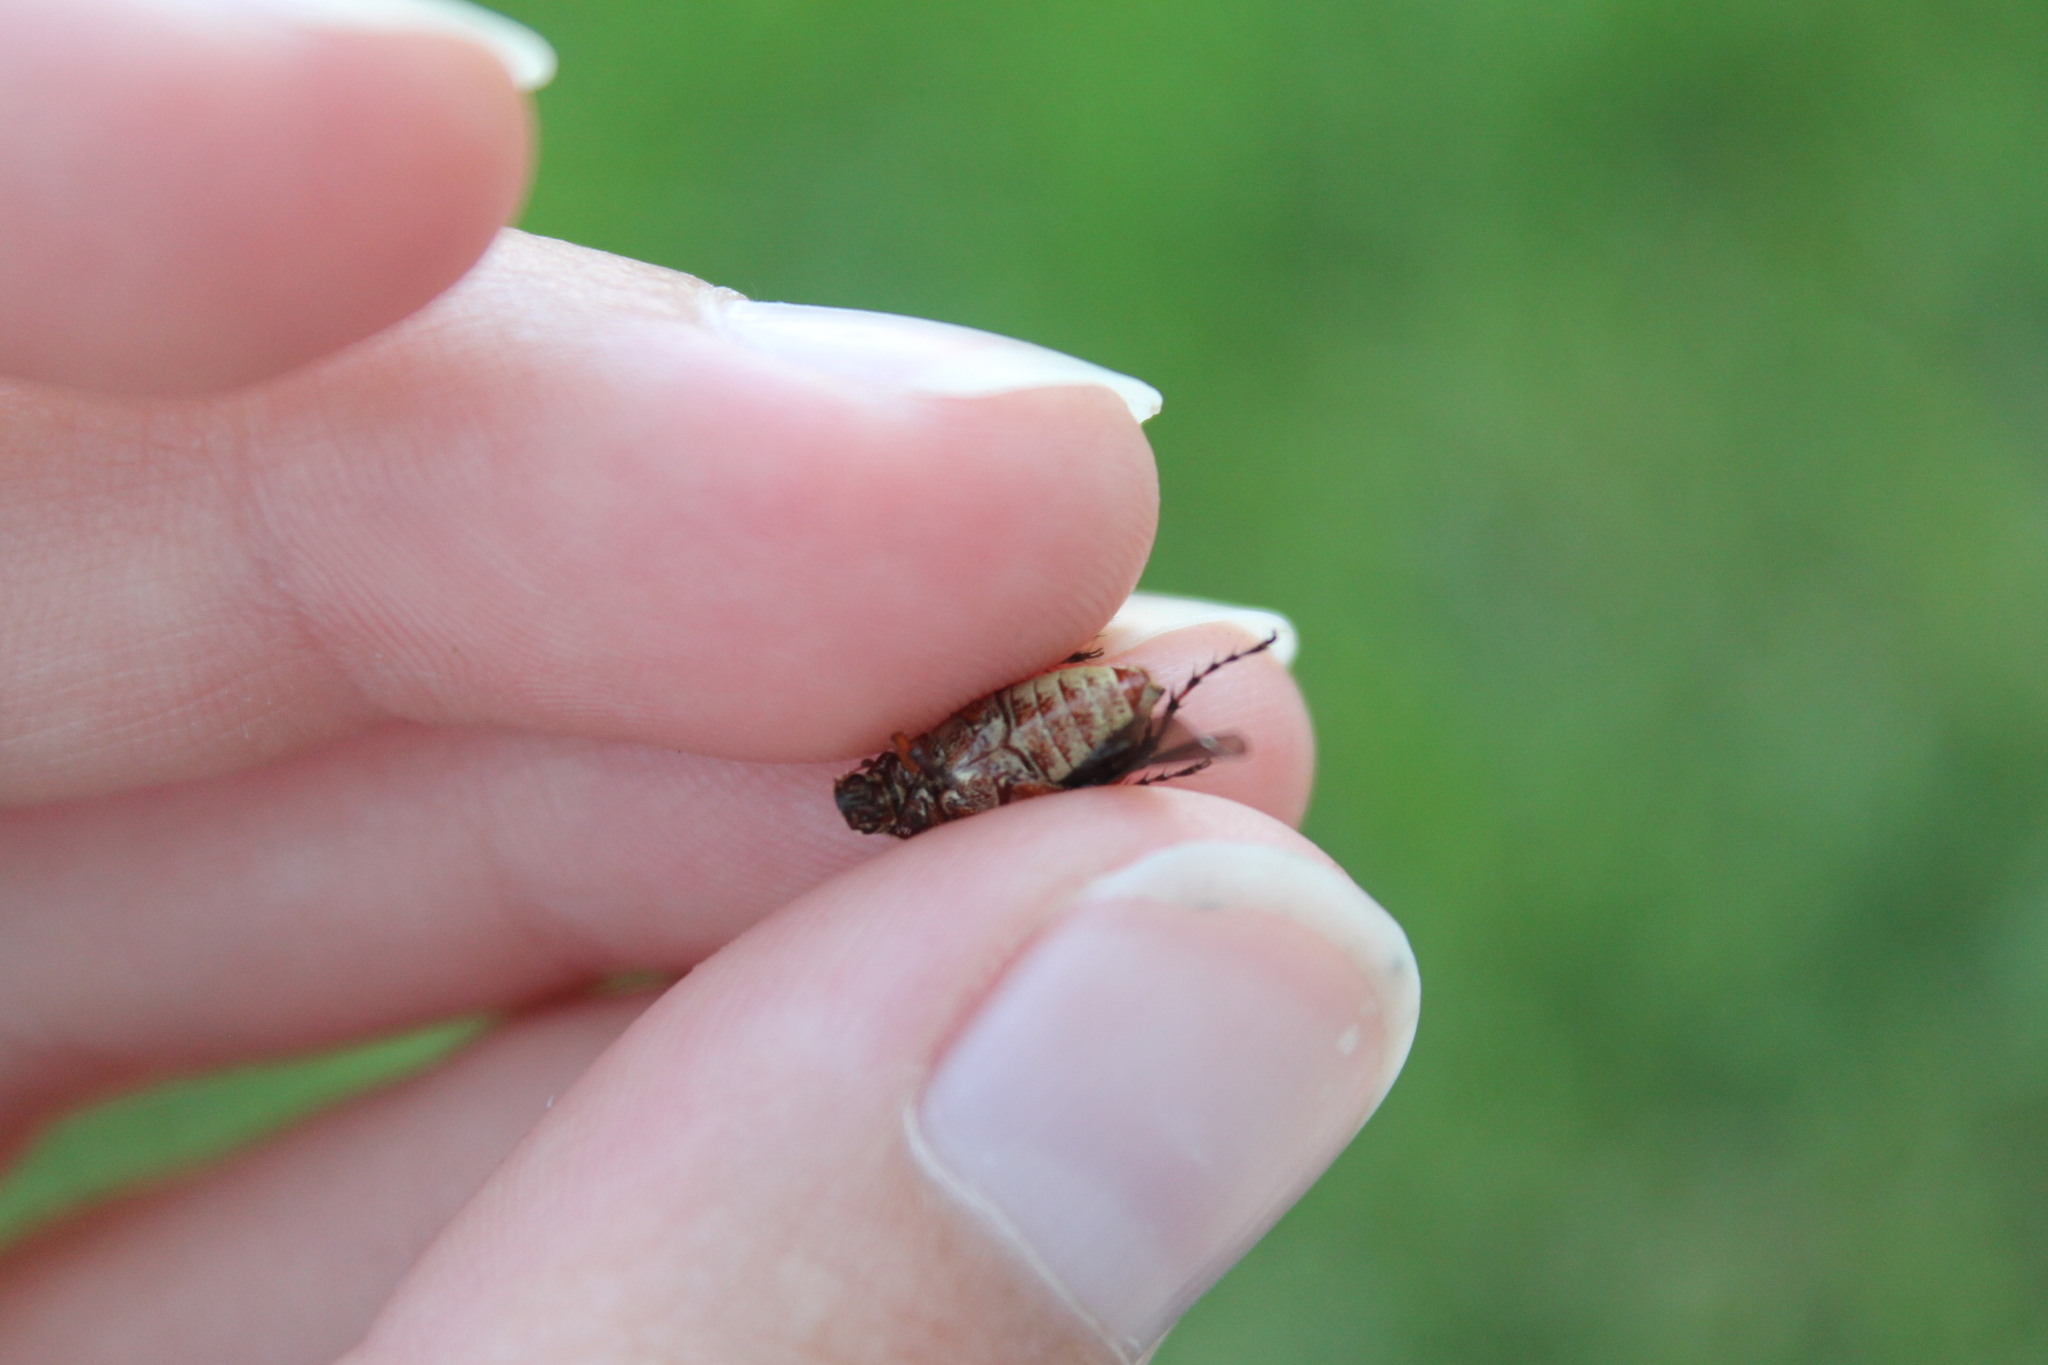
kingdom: Animalia
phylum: Arthropoda
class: Insecta
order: Coleoptera
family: Scarabaeidae
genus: Macrodactylus
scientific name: Macrodactylus subspinosus
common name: American rose chafer
